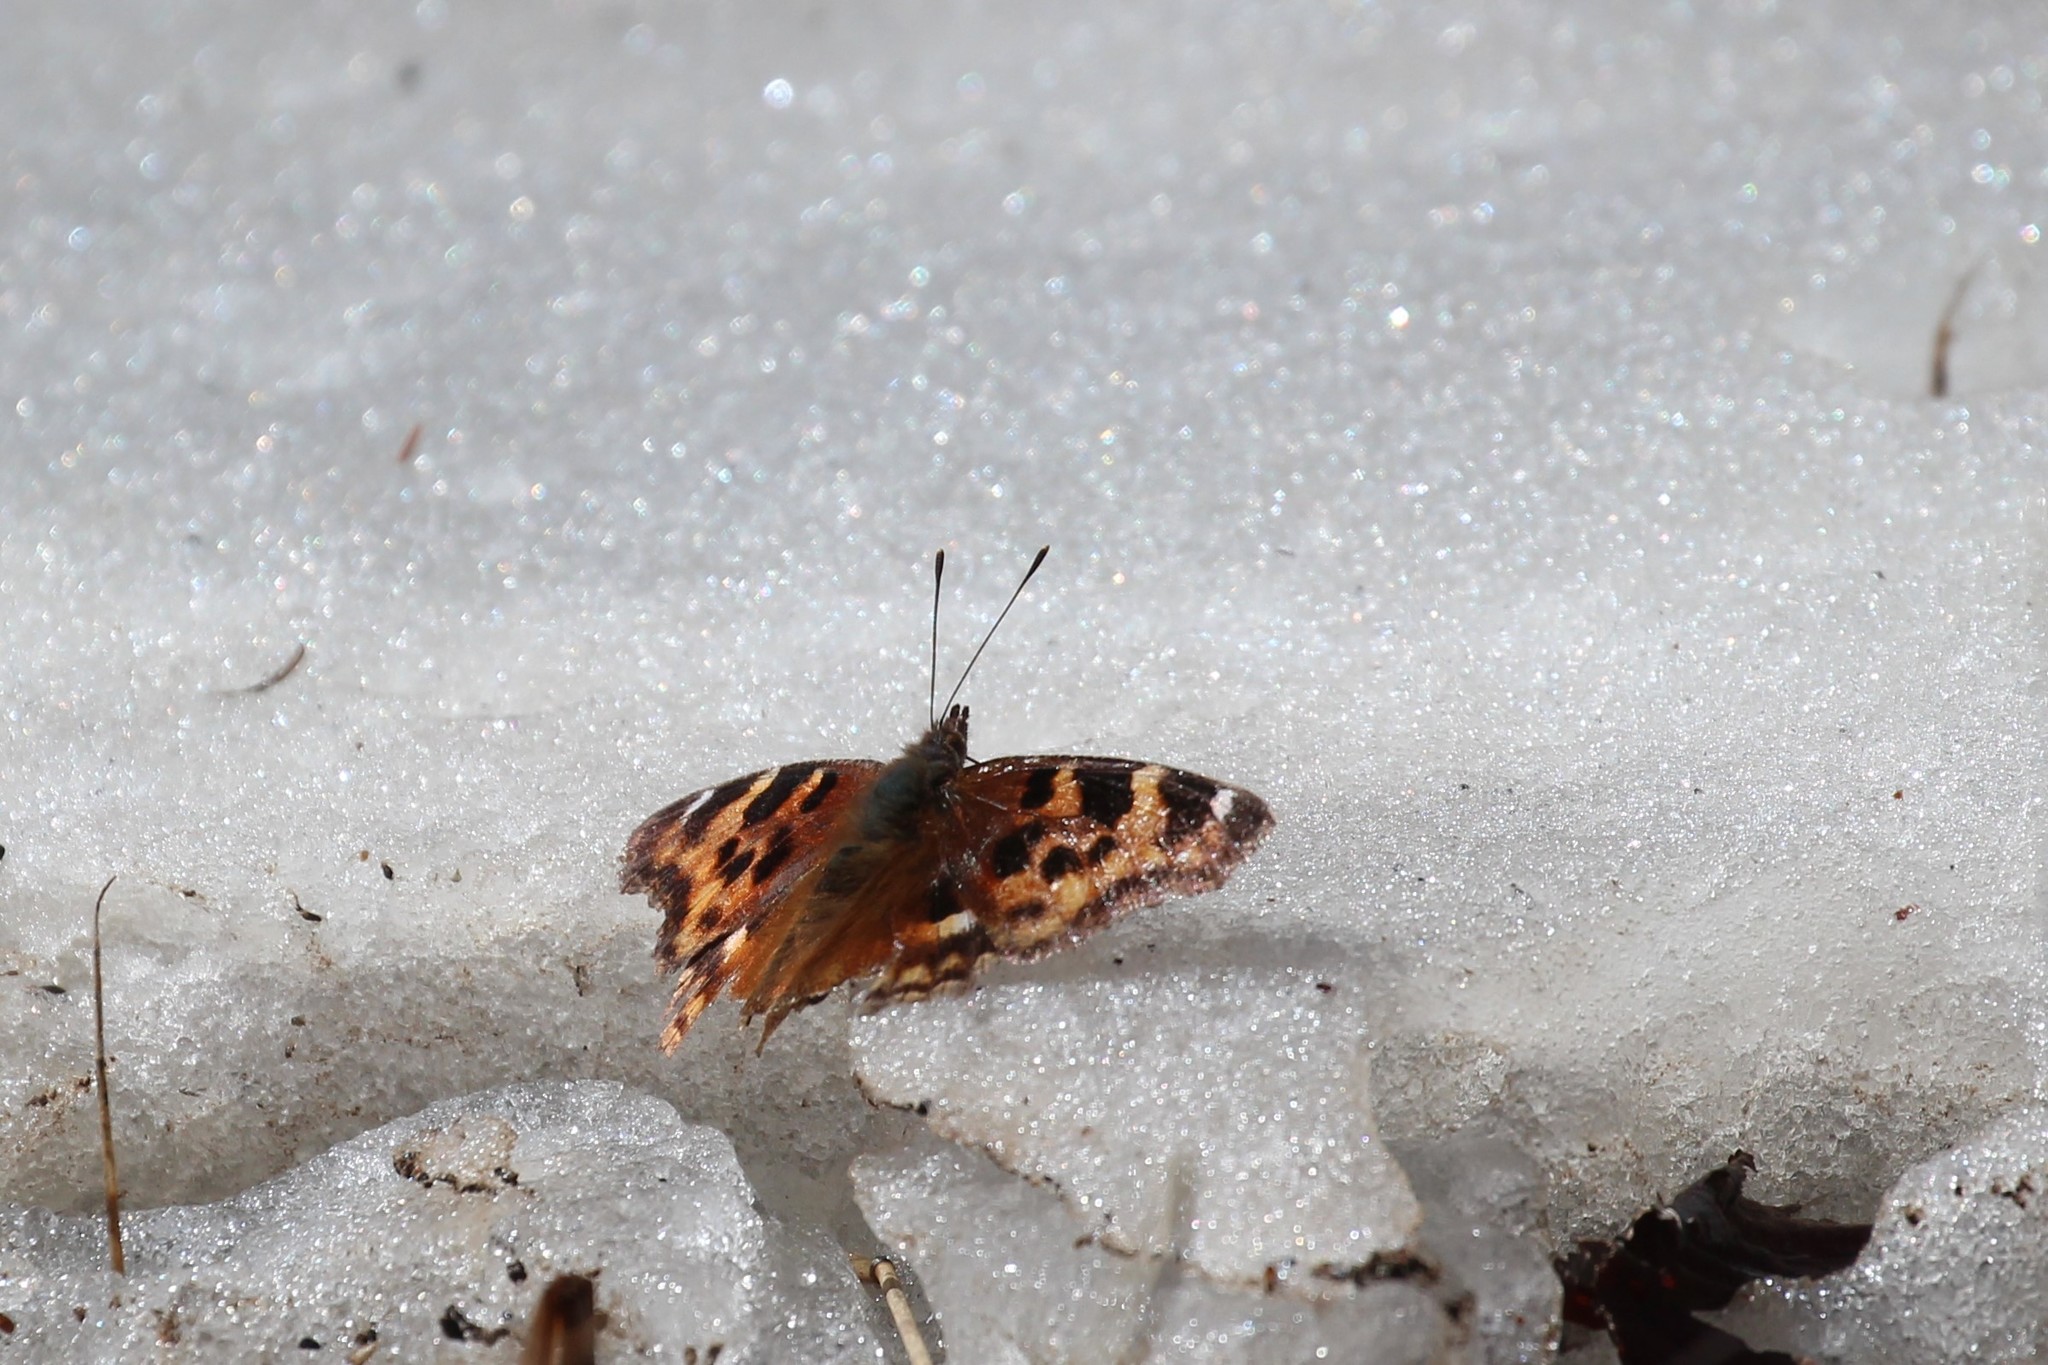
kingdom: Animalia
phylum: Arthropoda
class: Insecta
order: Lepidoptera
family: Nymphalidae
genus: Polygonia
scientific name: Polygonia vaualbum
